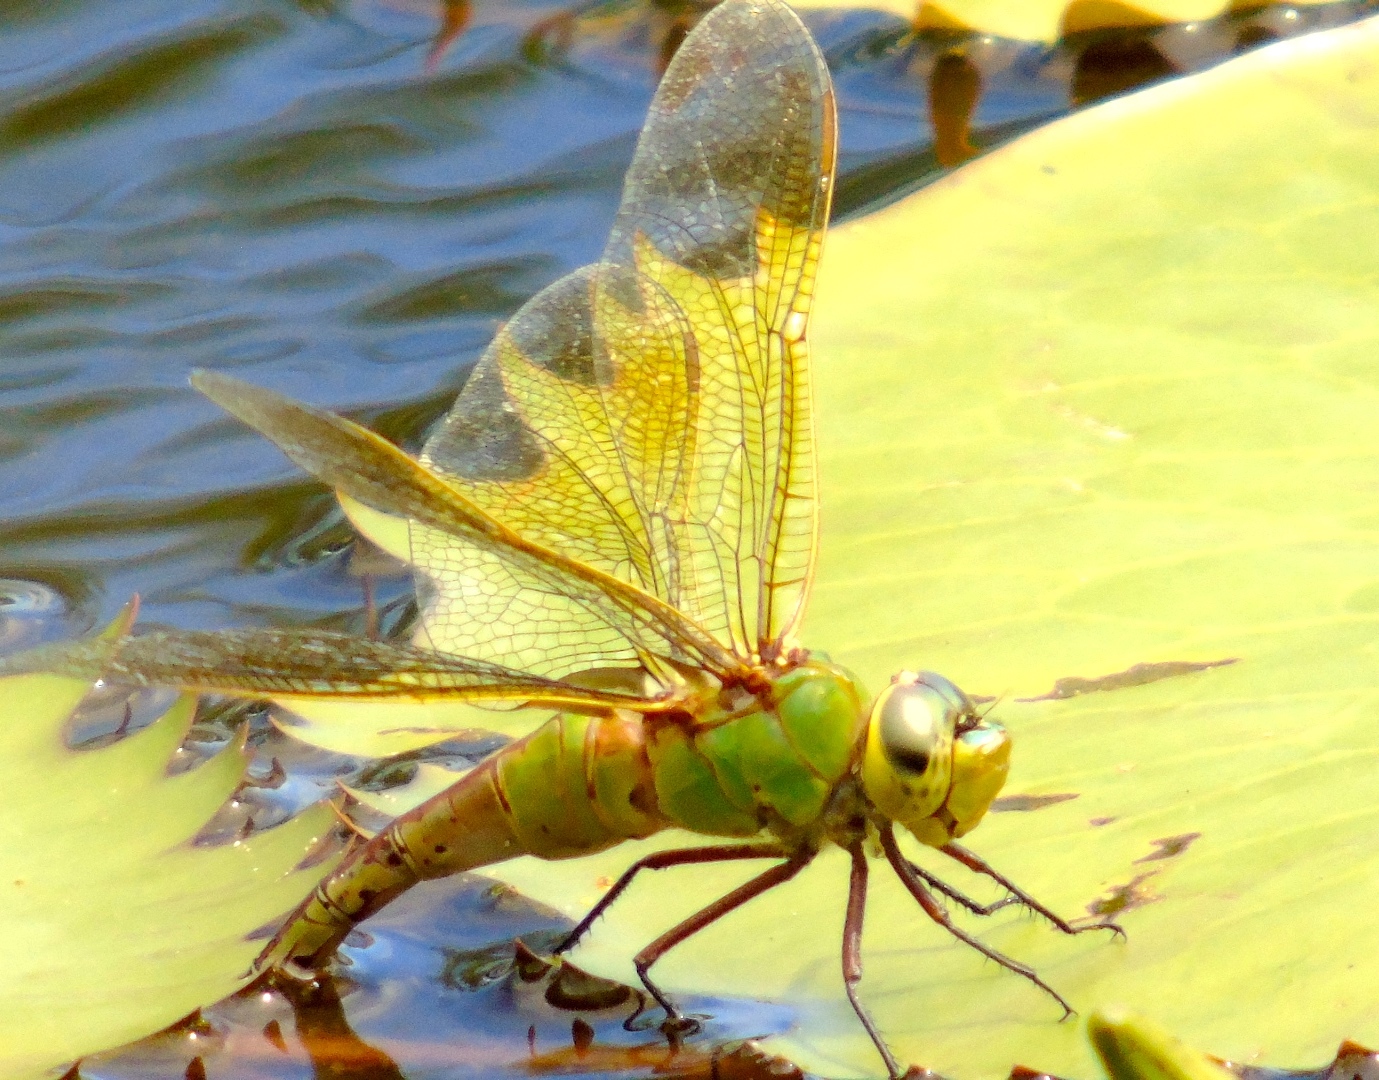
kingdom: Animalia
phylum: Arthropoda
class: Insecta
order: Odonata
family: Aeshnidae
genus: Anax
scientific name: Anax junius
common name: Common green darner
